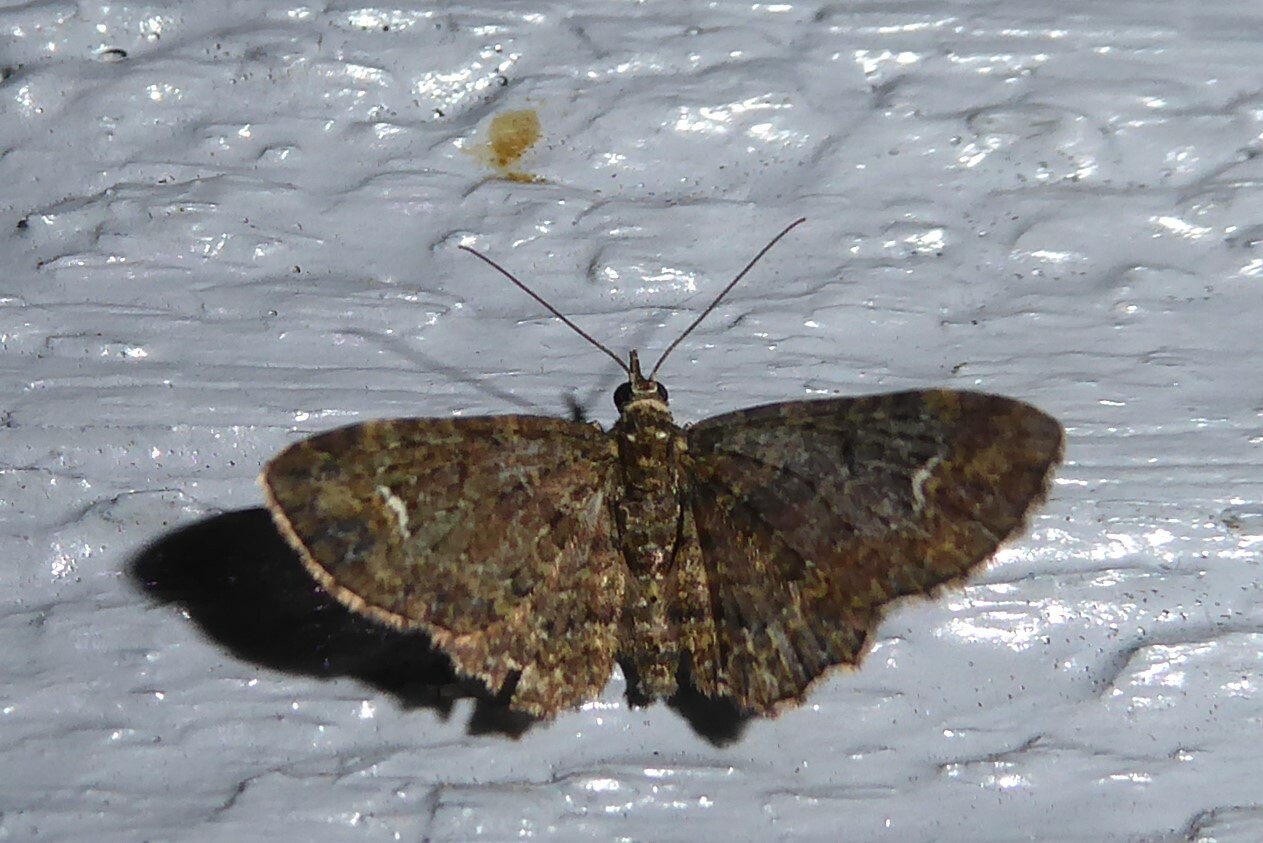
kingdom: Animalia
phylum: Arthropoda
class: Insecta
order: Lepidoptera
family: Geometridae
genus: Pasiphilodes
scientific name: Pasiphilodes testulata
